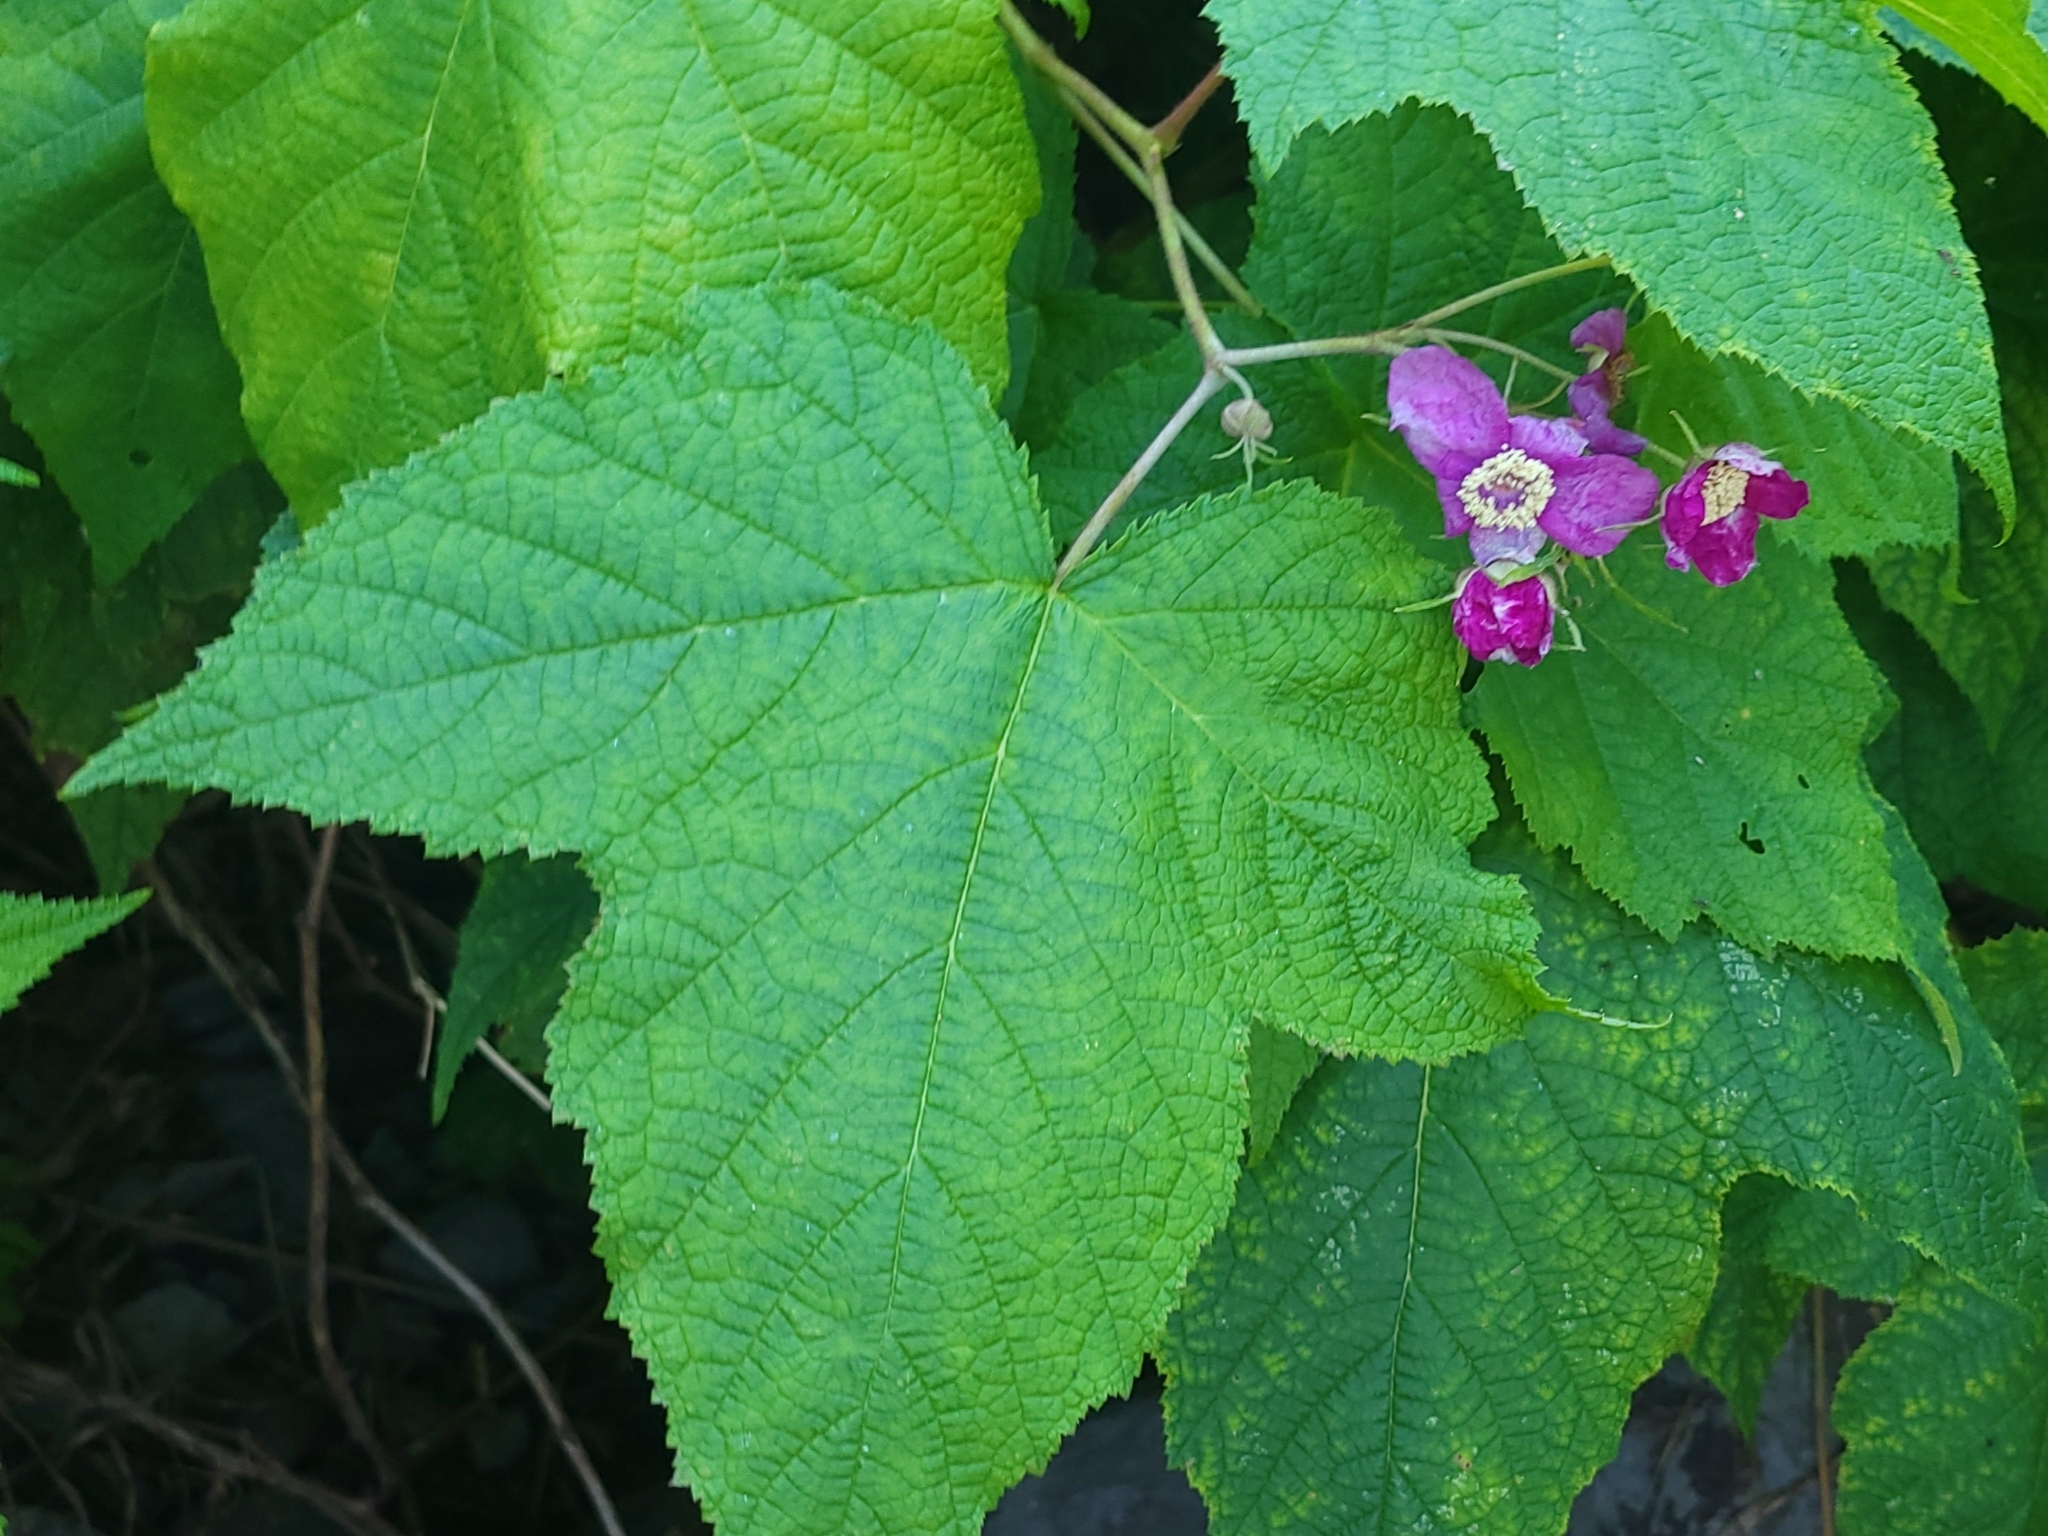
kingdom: Plantae
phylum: Tracheophyta
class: Magnoliopsida
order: Rosales
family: Rosaceae
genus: Rubus
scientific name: Rubus odoratus
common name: Purple-flowered raspberry
